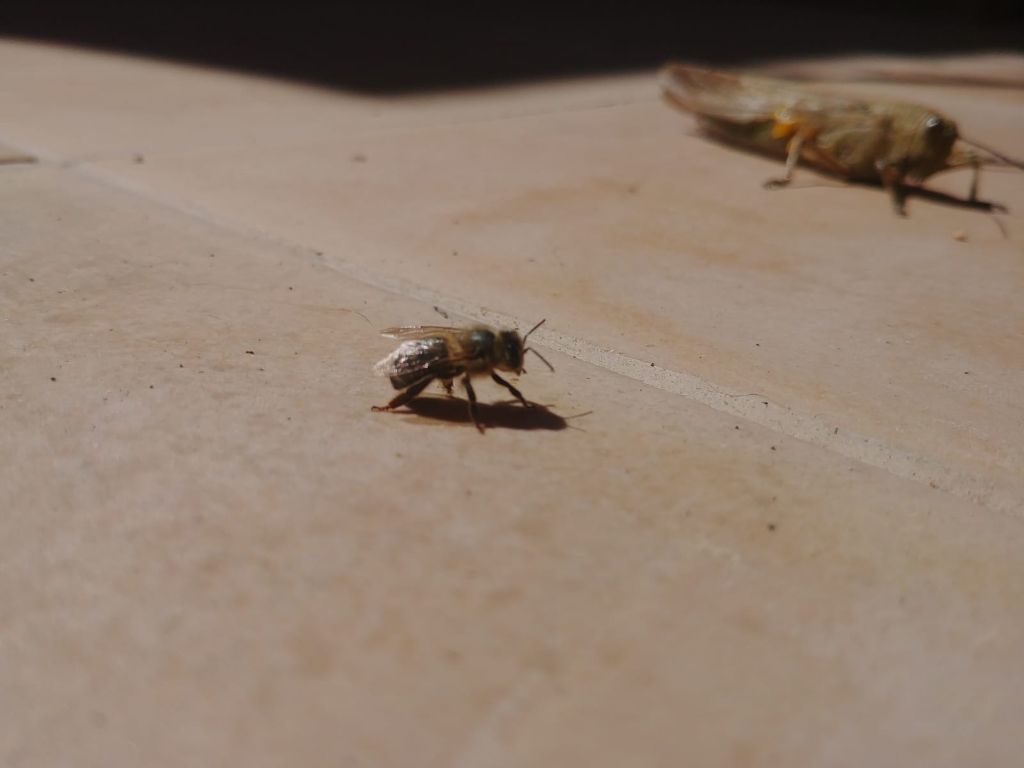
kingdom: Animalia
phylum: Arthropoda
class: Insecta
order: Hymenoptera
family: Apidae
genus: Apis
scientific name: Apis mellifera
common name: Honey bee
